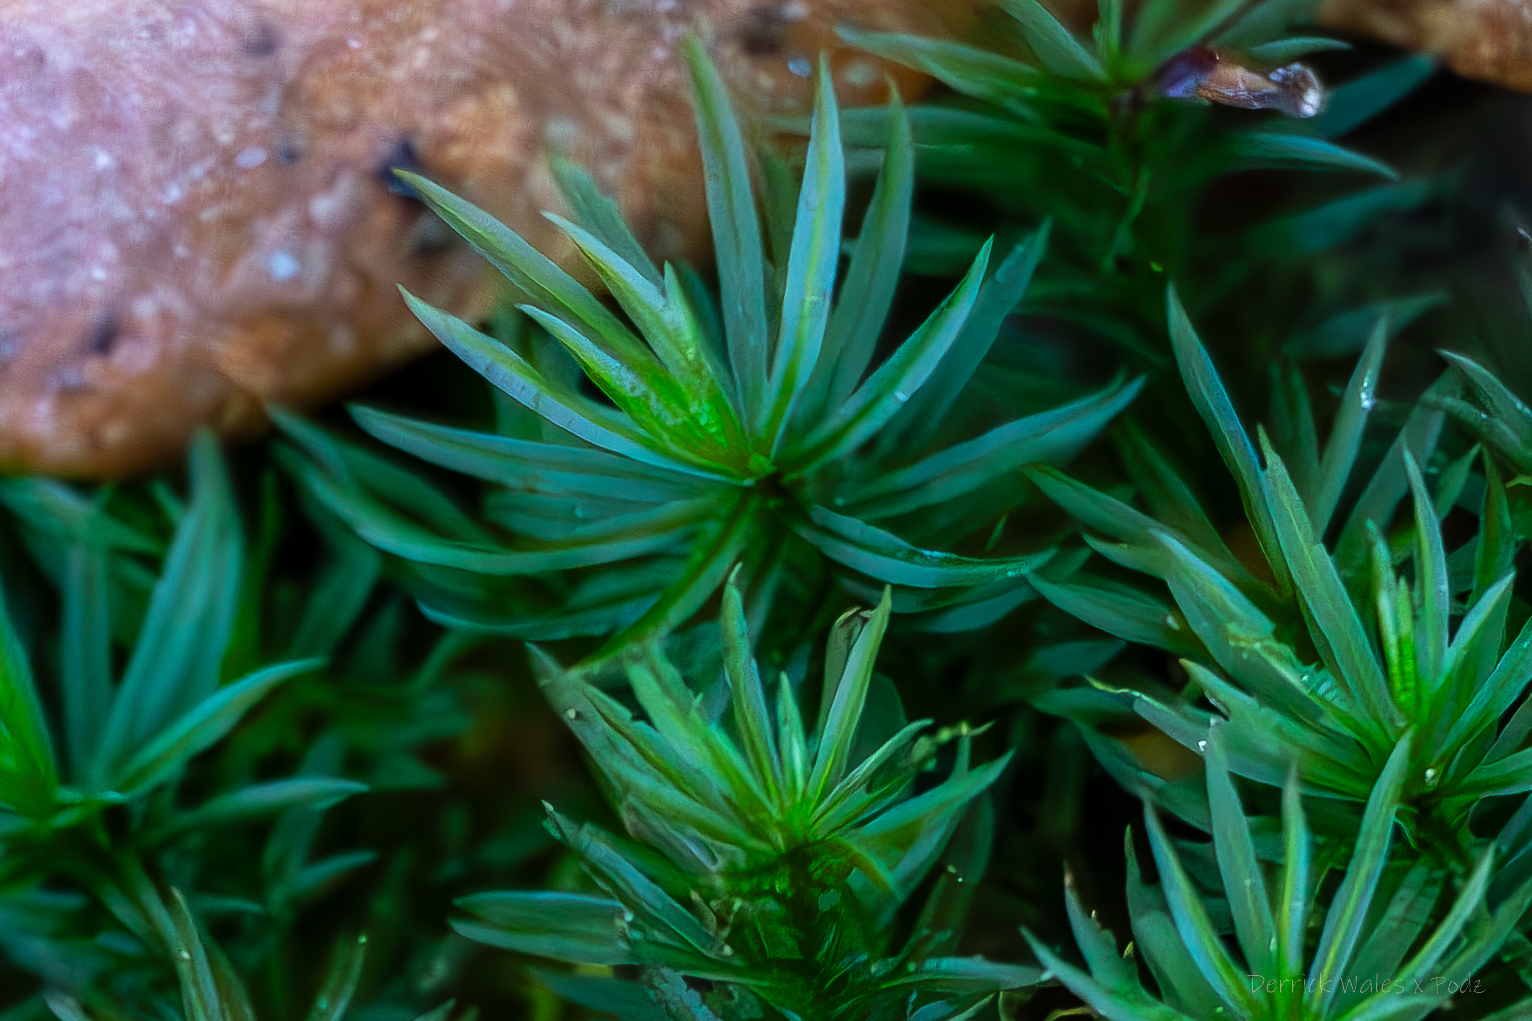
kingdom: Plantae
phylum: Bryophyta
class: Polytrichopsida
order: Polytrichales
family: Polytrichaceae
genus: Atrichum
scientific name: Atrichum cylindricum
